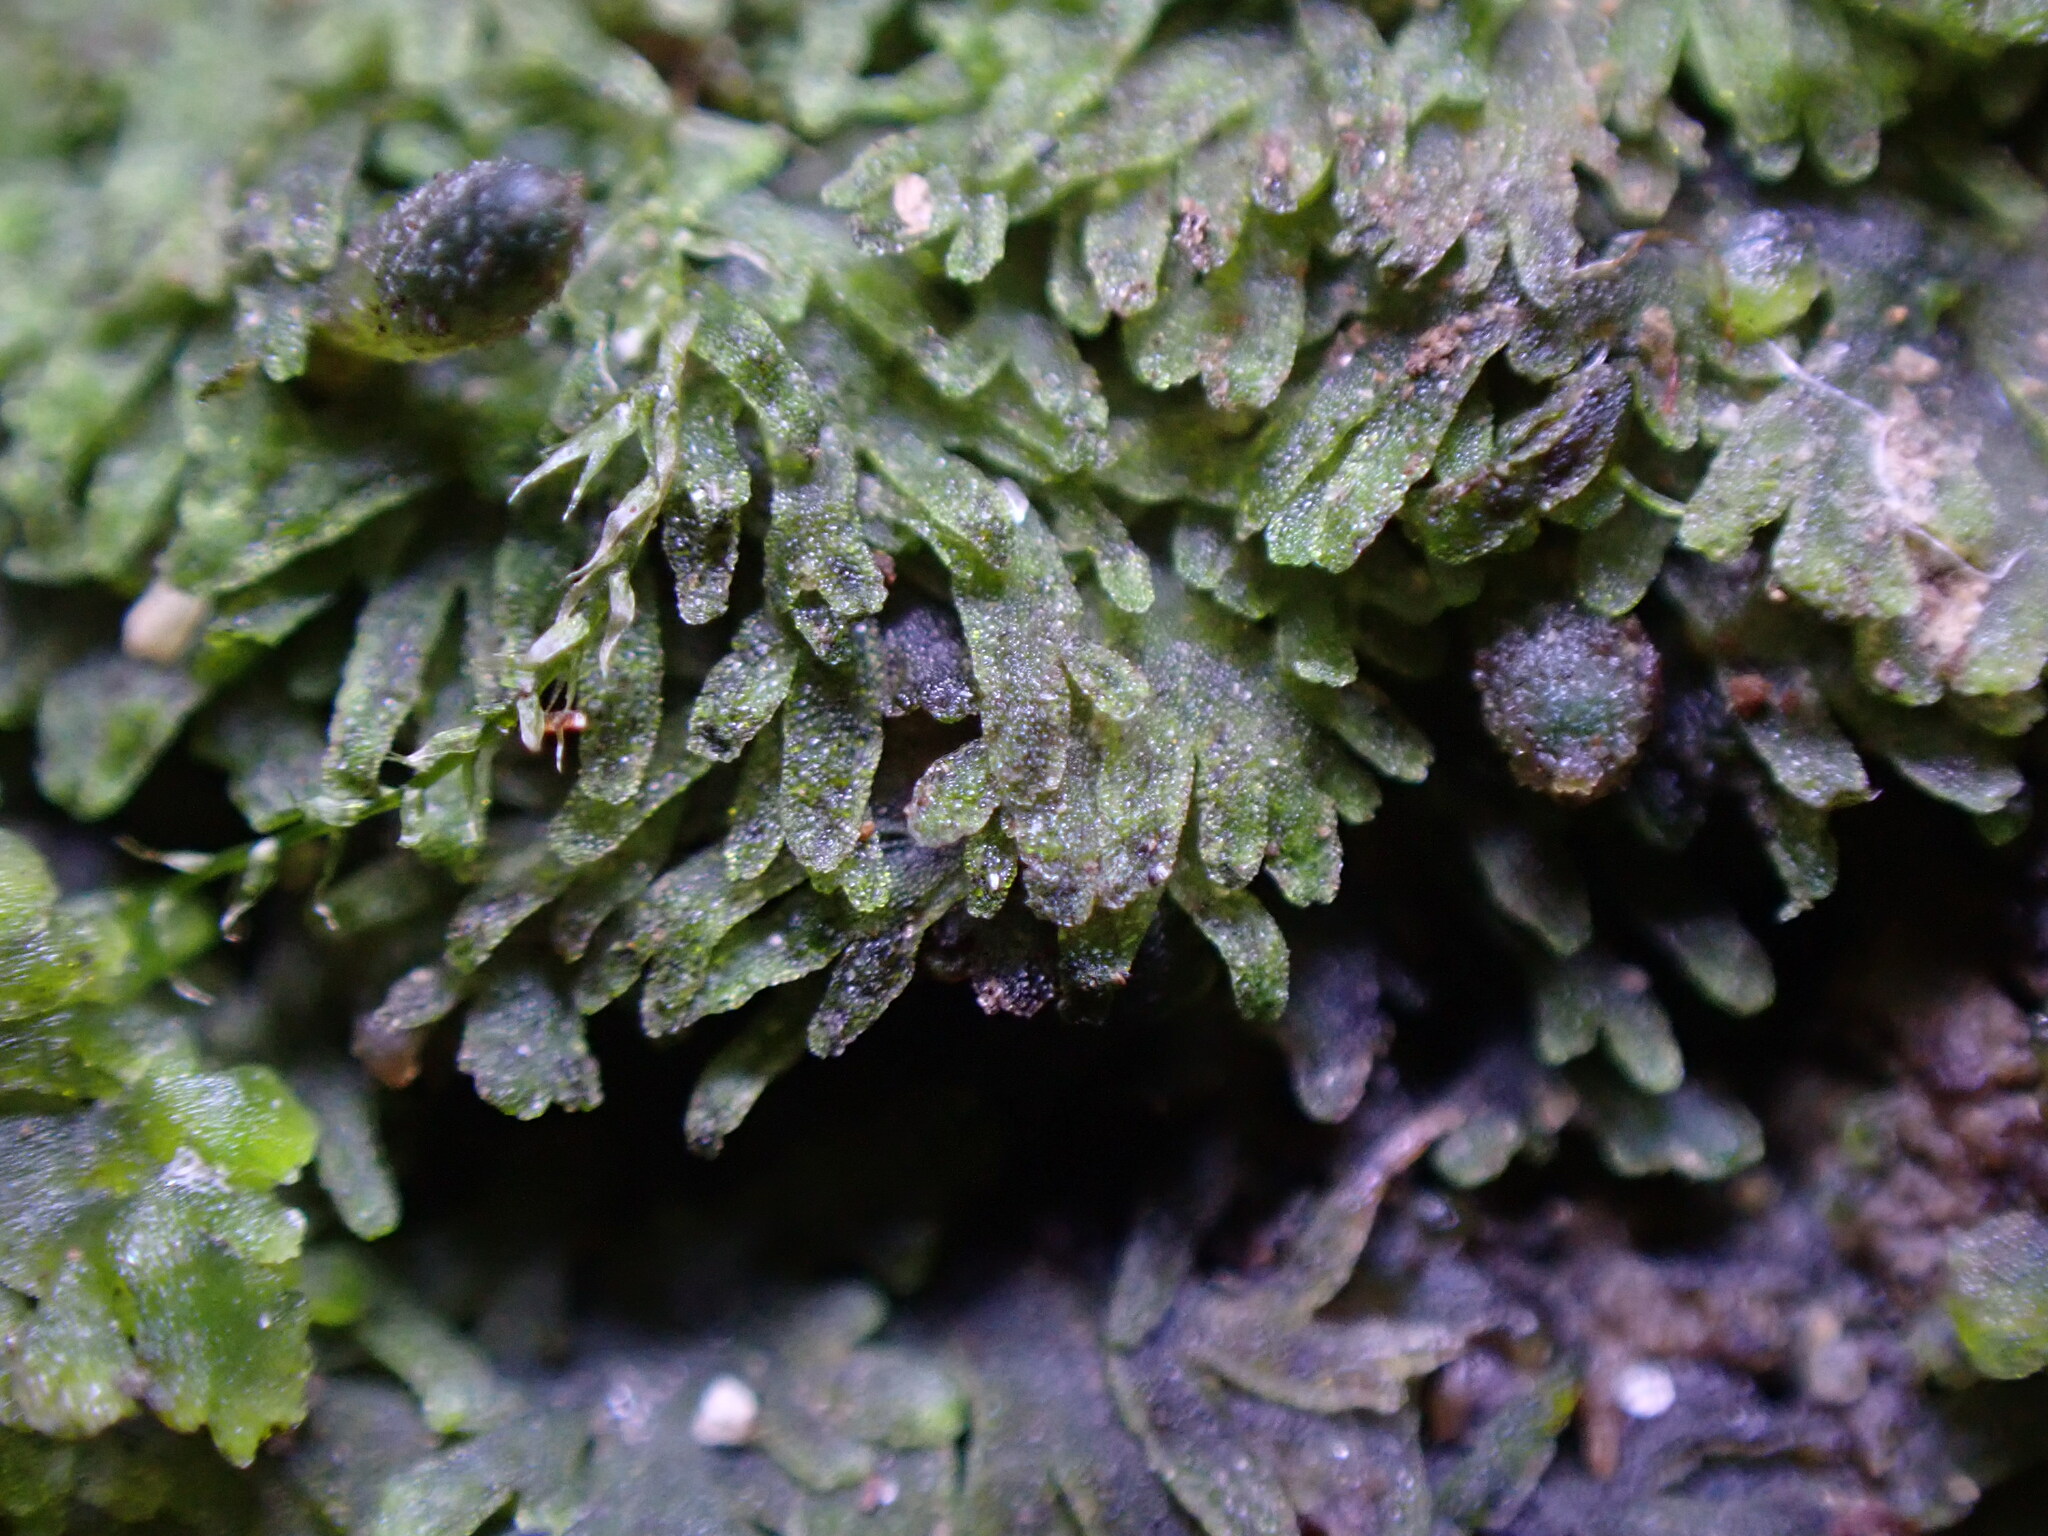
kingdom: Plantae
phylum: Marchantiophyta
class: Jungermanniopsida
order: Metzgeriales
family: Aneuraceae
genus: Riccardia
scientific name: Riccardia multifida
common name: Delicate germanderwort
